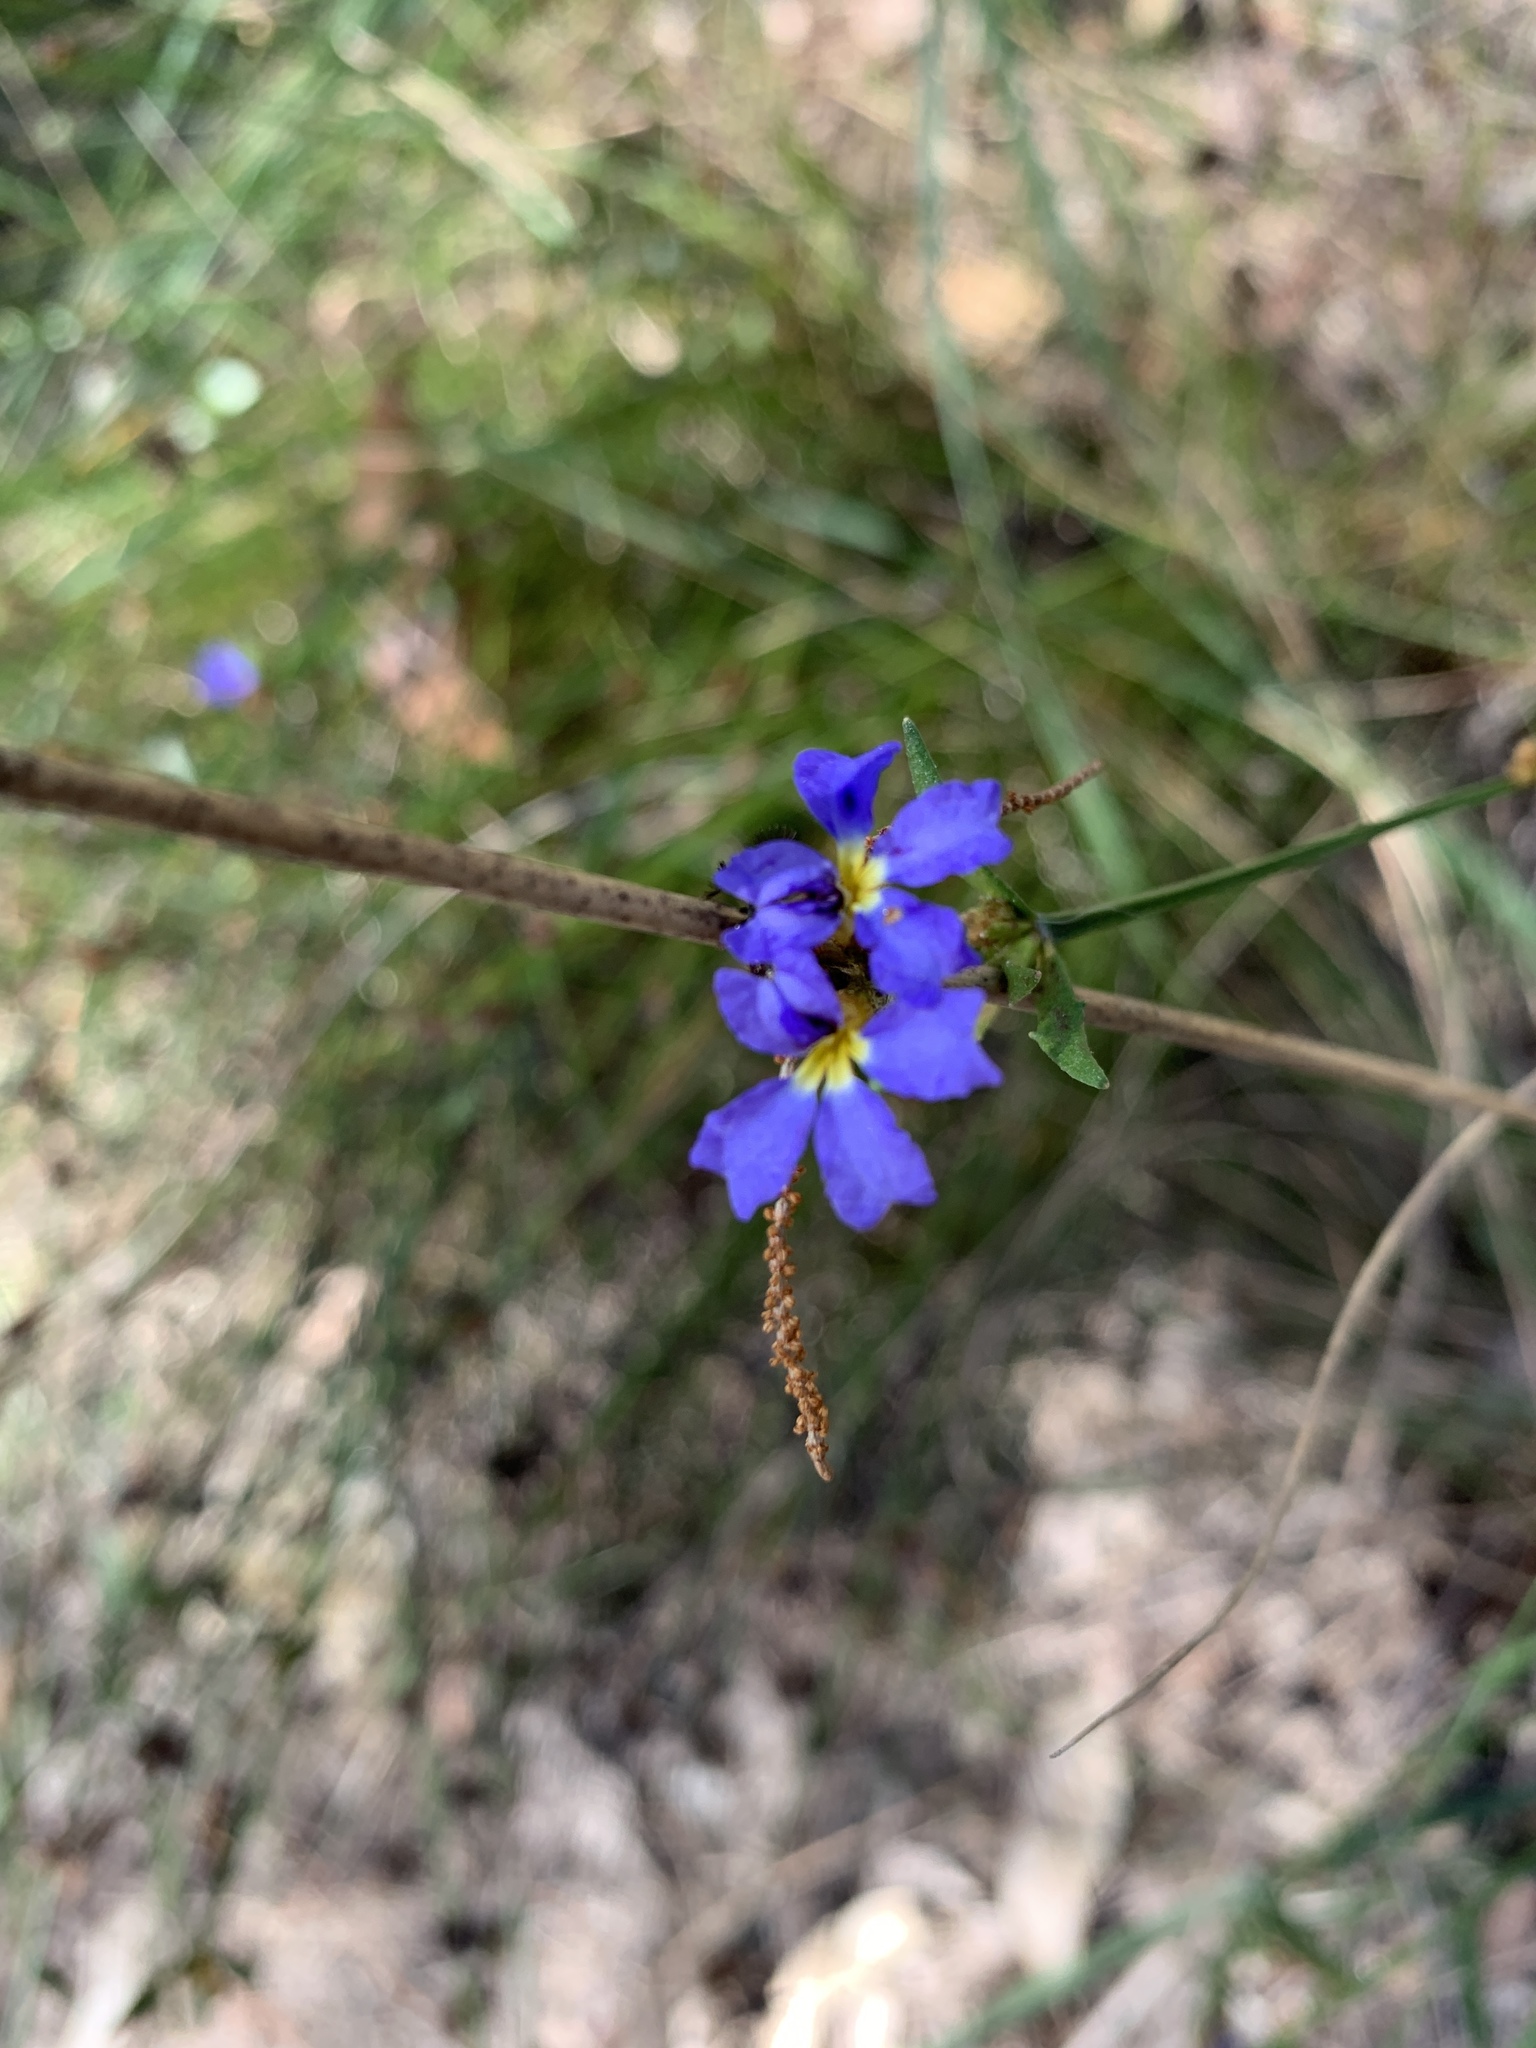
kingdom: Plantae
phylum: Tracheophyta
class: Magnoliopsida
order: Asterales
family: Goodeniaceae
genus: Dampiera
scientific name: Dampiera stricta
